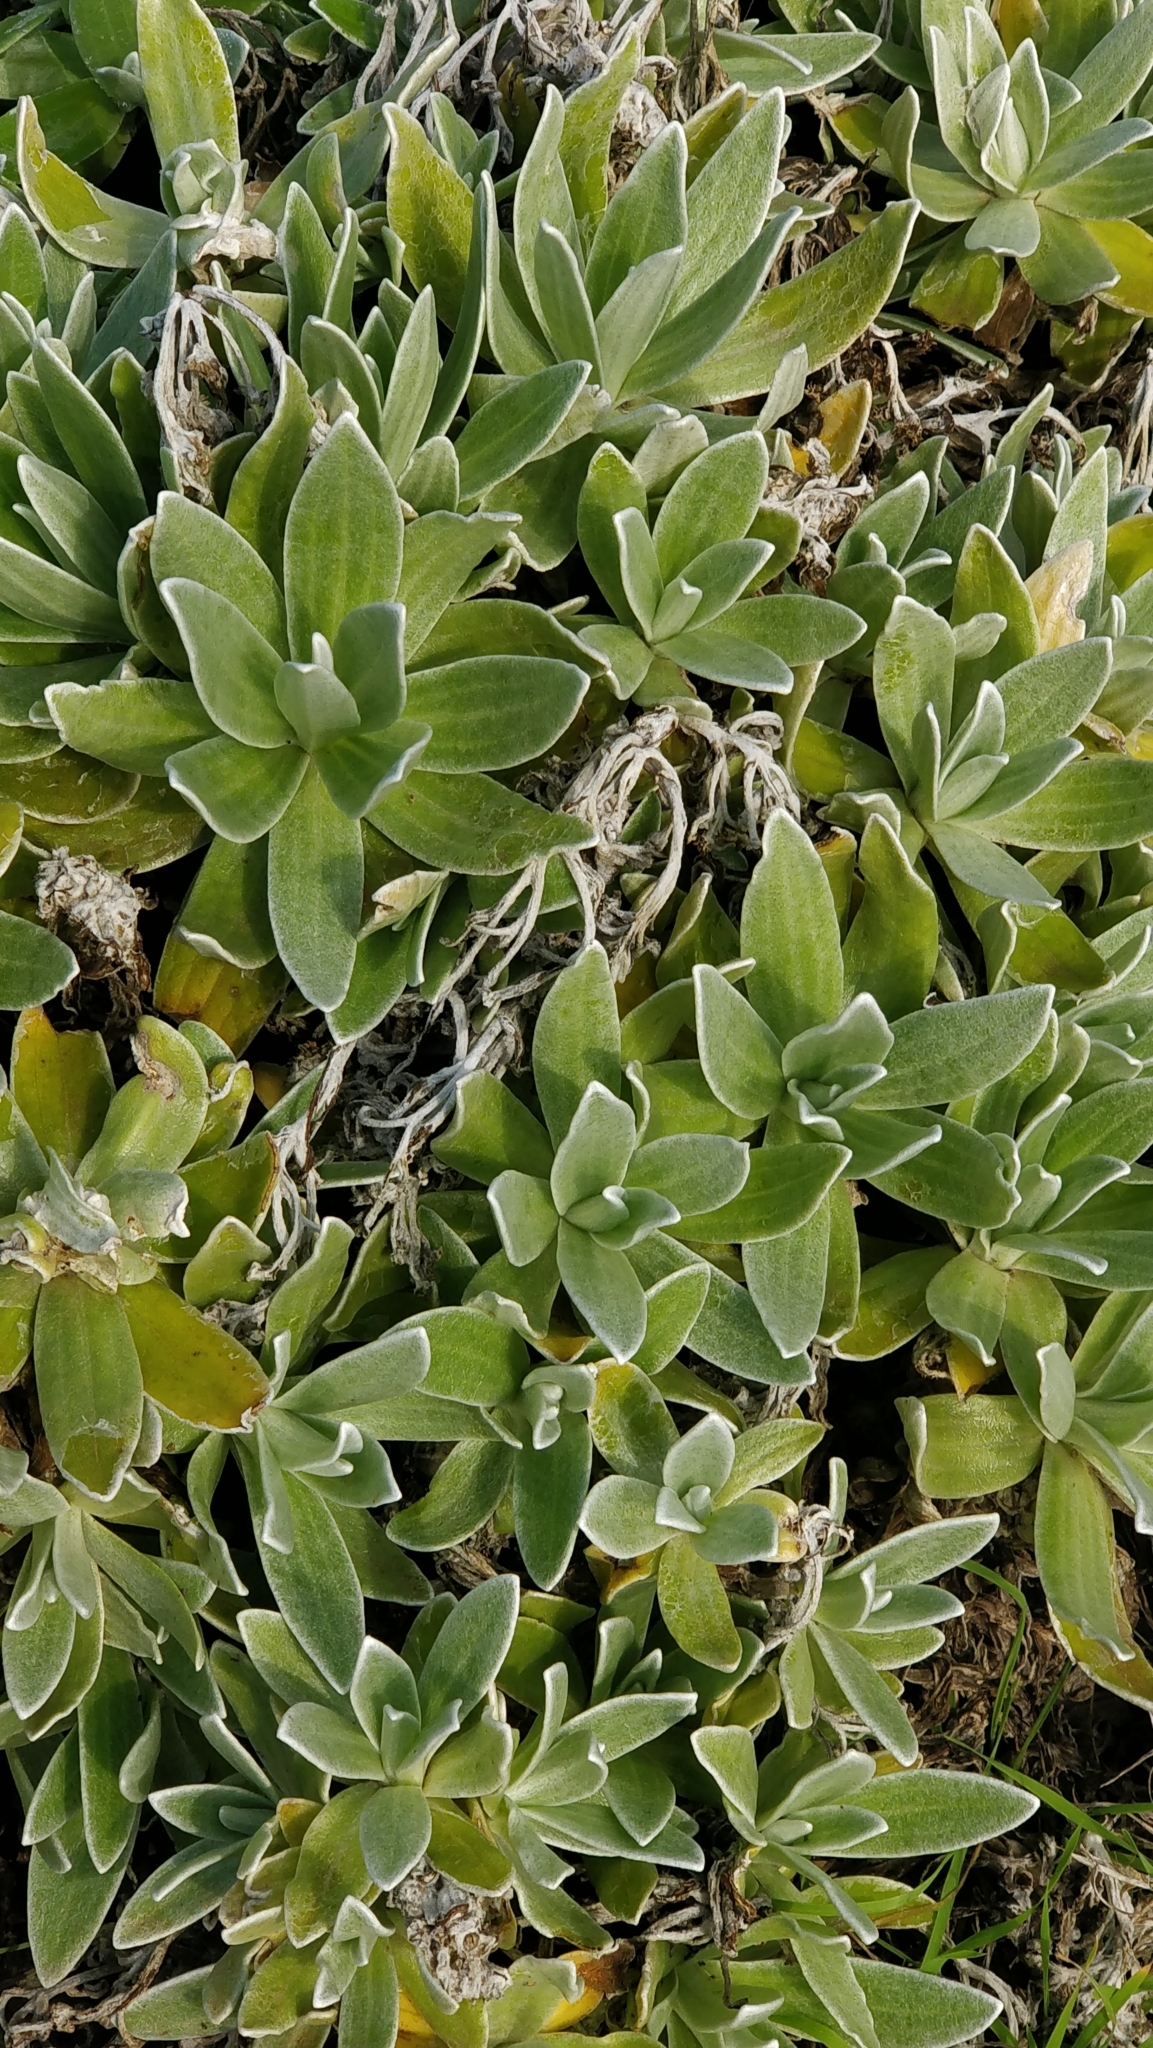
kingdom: Plantae
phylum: Tracheophyta
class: Magnoliopsida
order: Asterales
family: Asteraceae
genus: Helichrysum
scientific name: Helichrysum devium
